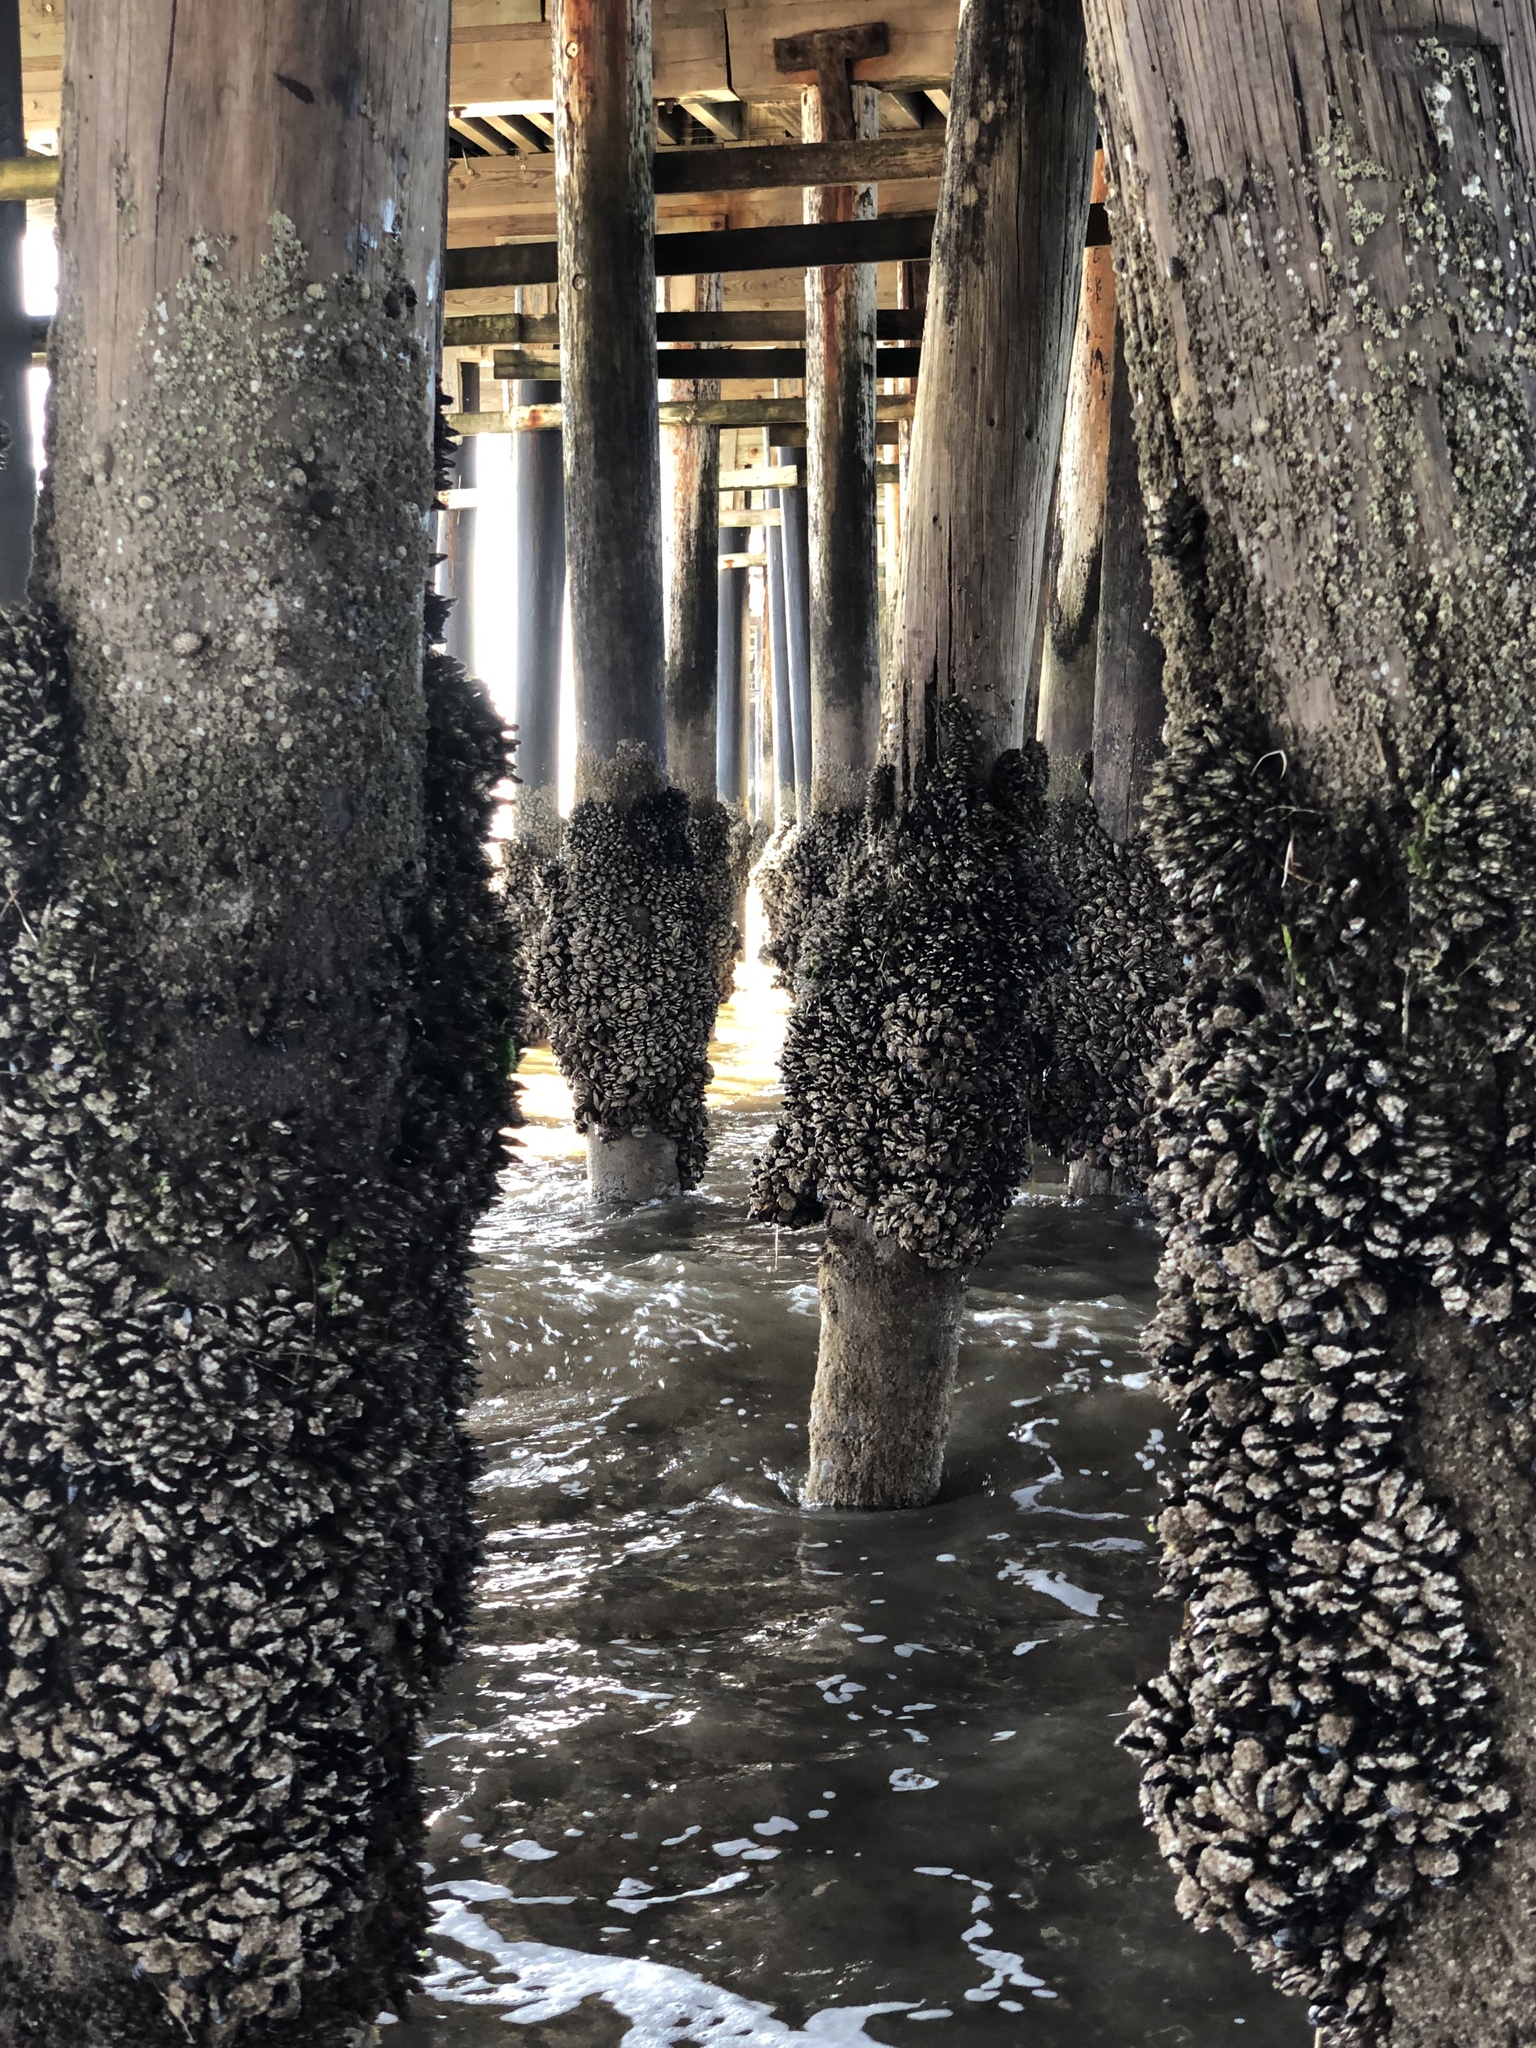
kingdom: Animalia
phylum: Mollusca
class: Bivalvia
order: Mytilida
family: Mytilidae
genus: Mytilus
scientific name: Mytilus californianus
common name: California mussel
